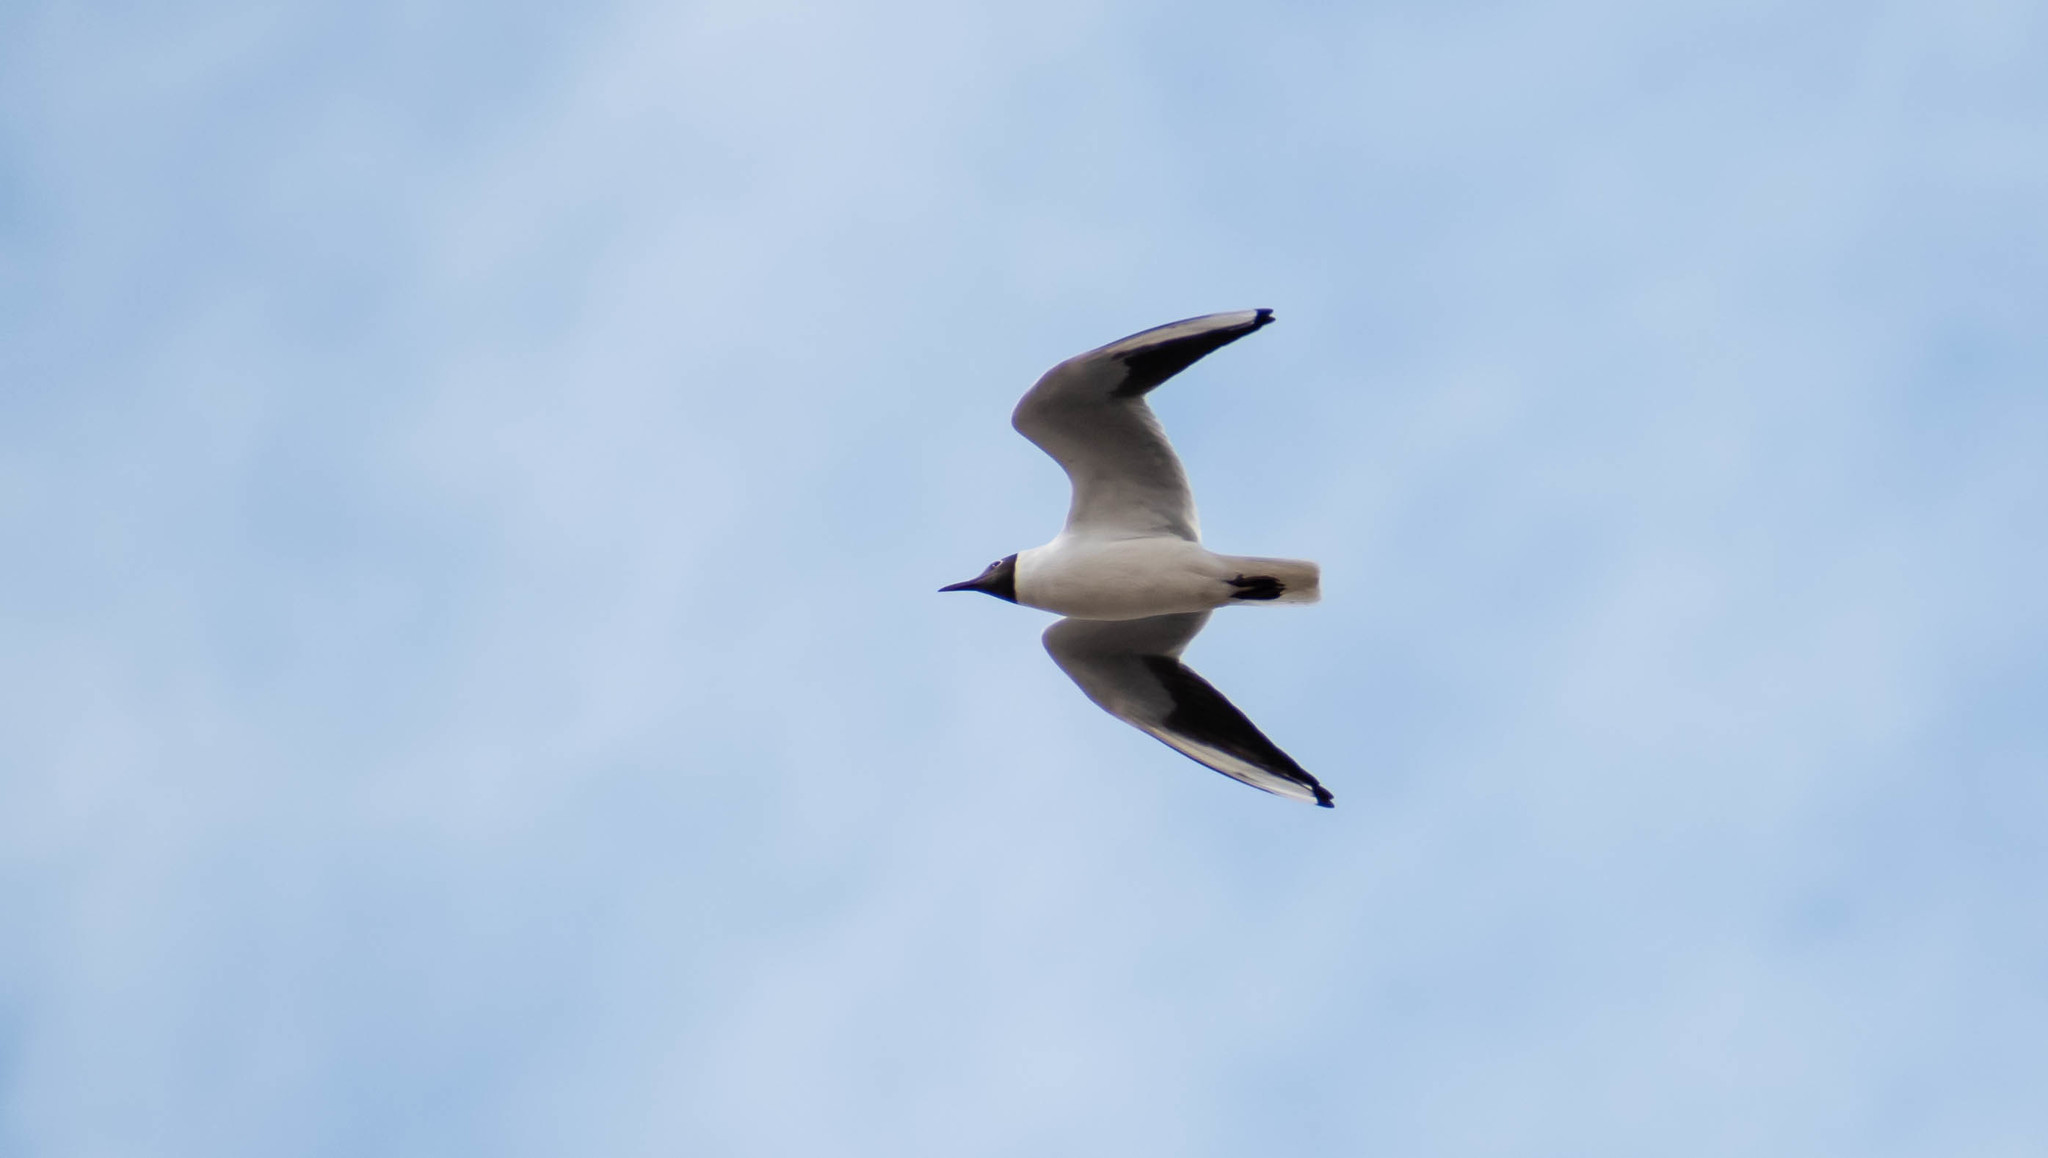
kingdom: Animalia
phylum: Chordata
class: Aves
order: Charadriiformes
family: Laridae
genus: Chroicocephalus
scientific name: Chroicocephalus ridibundus
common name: Black-headed gull
